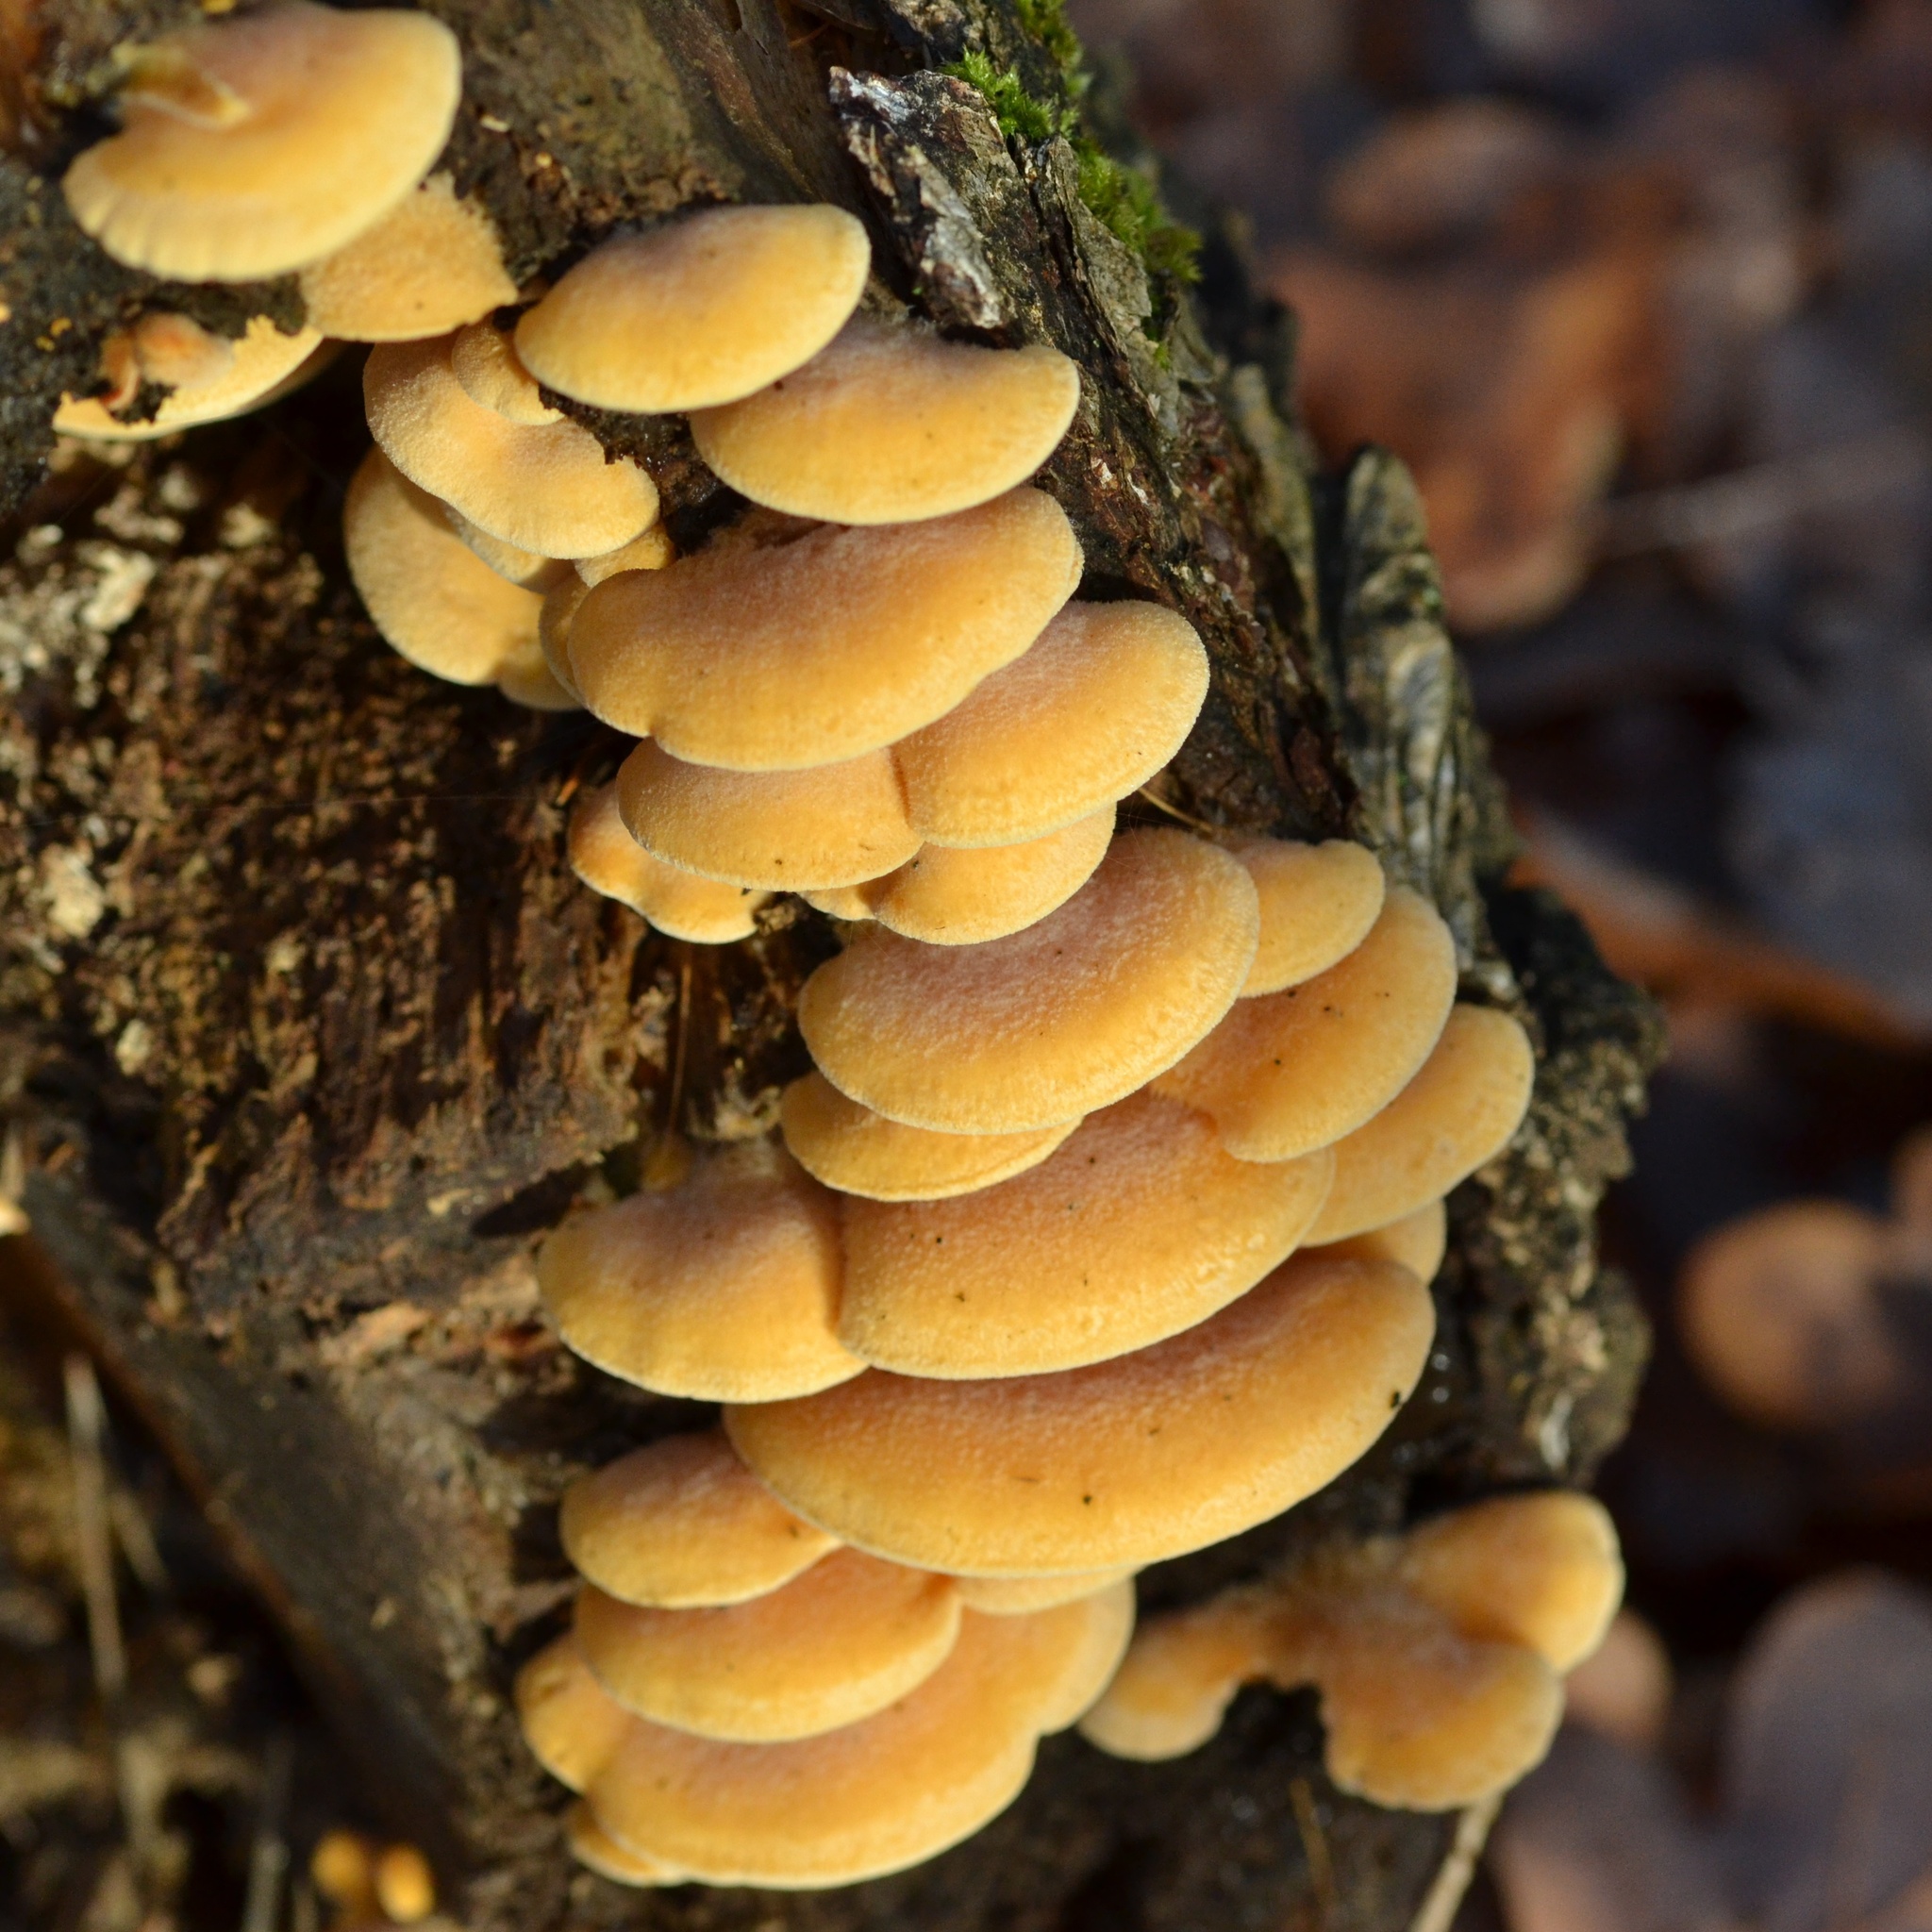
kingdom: Fungi
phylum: Basidiomycota
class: Agaricomycetes
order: Agaricales
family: Phyllotopsidaceae
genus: Phyllotopsis
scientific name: Phyllotopsis nidulans
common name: Orange mock oyster
